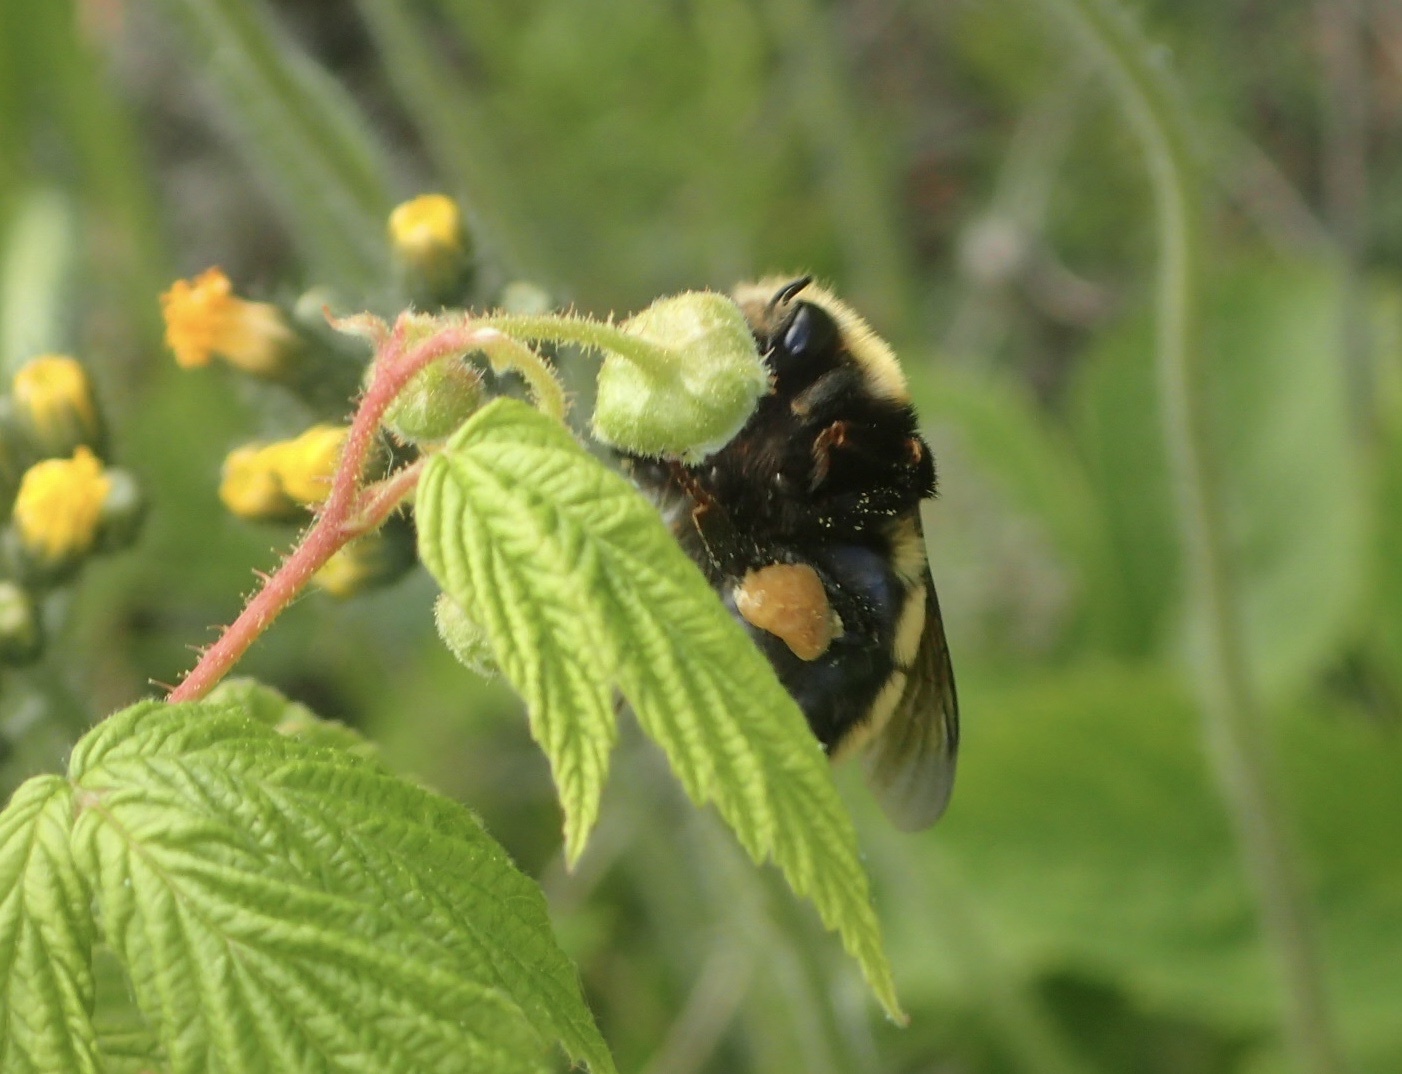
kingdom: Animalia
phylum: Arthropoda
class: Insecta
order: Hymenoptera
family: Apidae
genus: Bombus
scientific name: Bombus borealis
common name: Northern amber bumble bee
